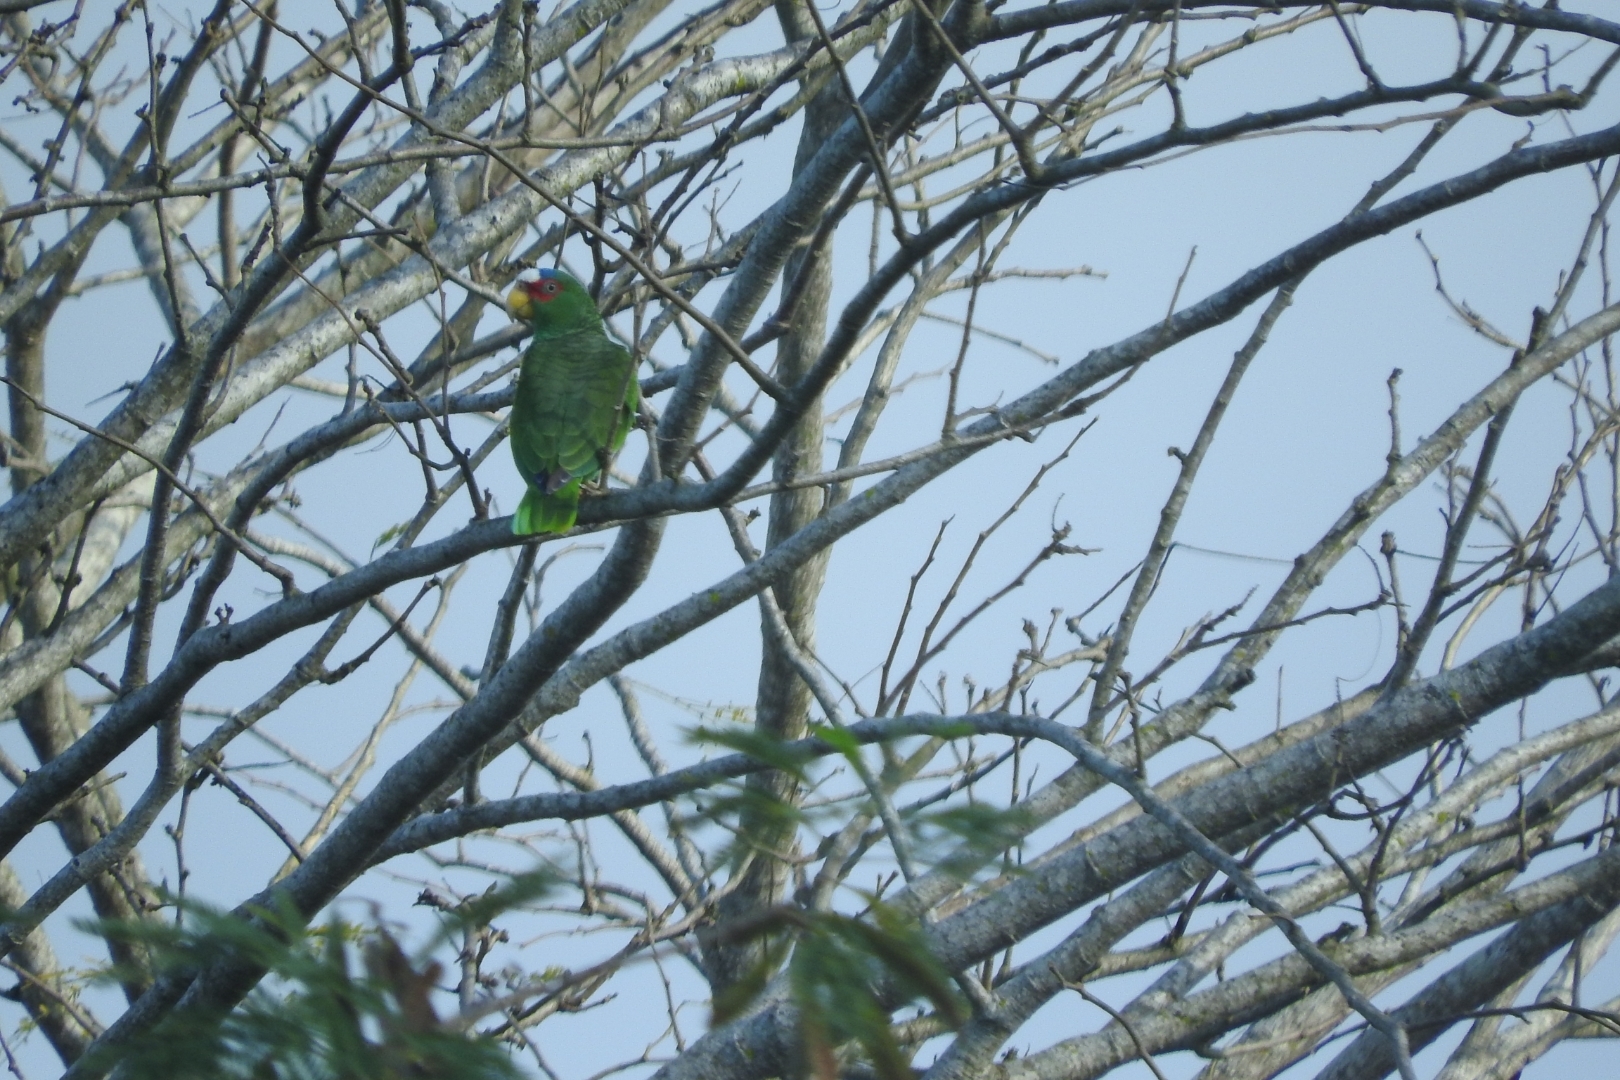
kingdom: Animalia
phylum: Chordata
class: Aves
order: Psittaciformes
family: Psittacidae
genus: Amazona
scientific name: Amazona albifrons
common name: White-fronted amazon
